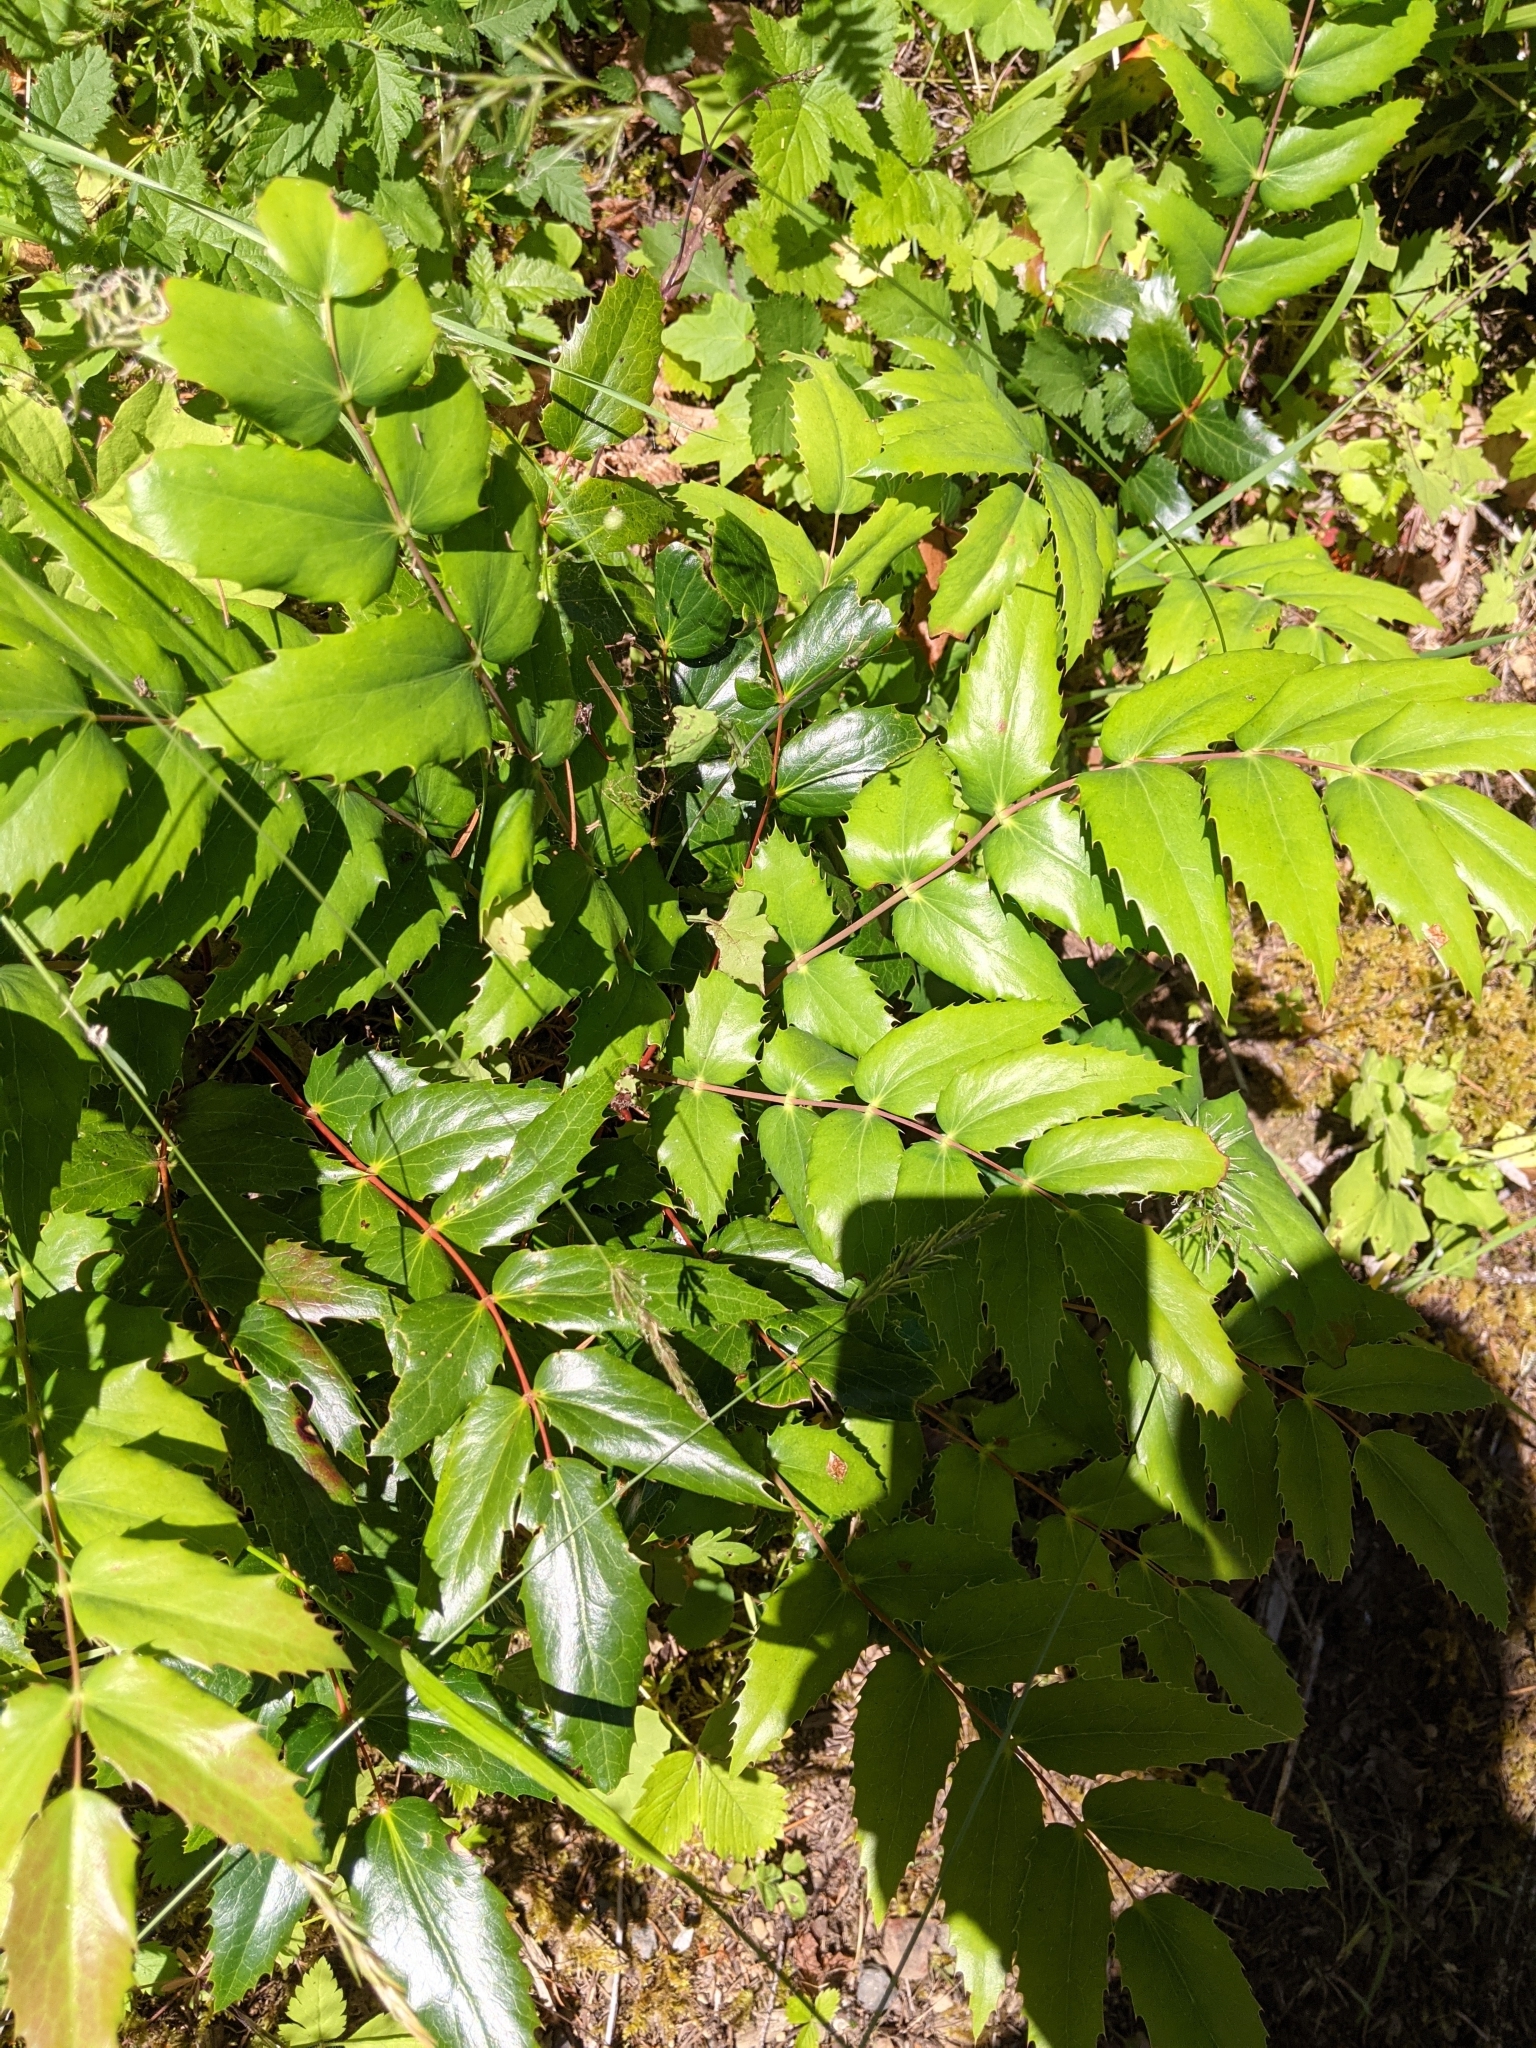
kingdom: Plantae
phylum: Tracheophyta
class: Magnoliopsida
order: Ranunculales
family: Berberidaceae
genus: Mahonia
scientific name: Mahonia nervosa
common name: Cascade oregon-grape
